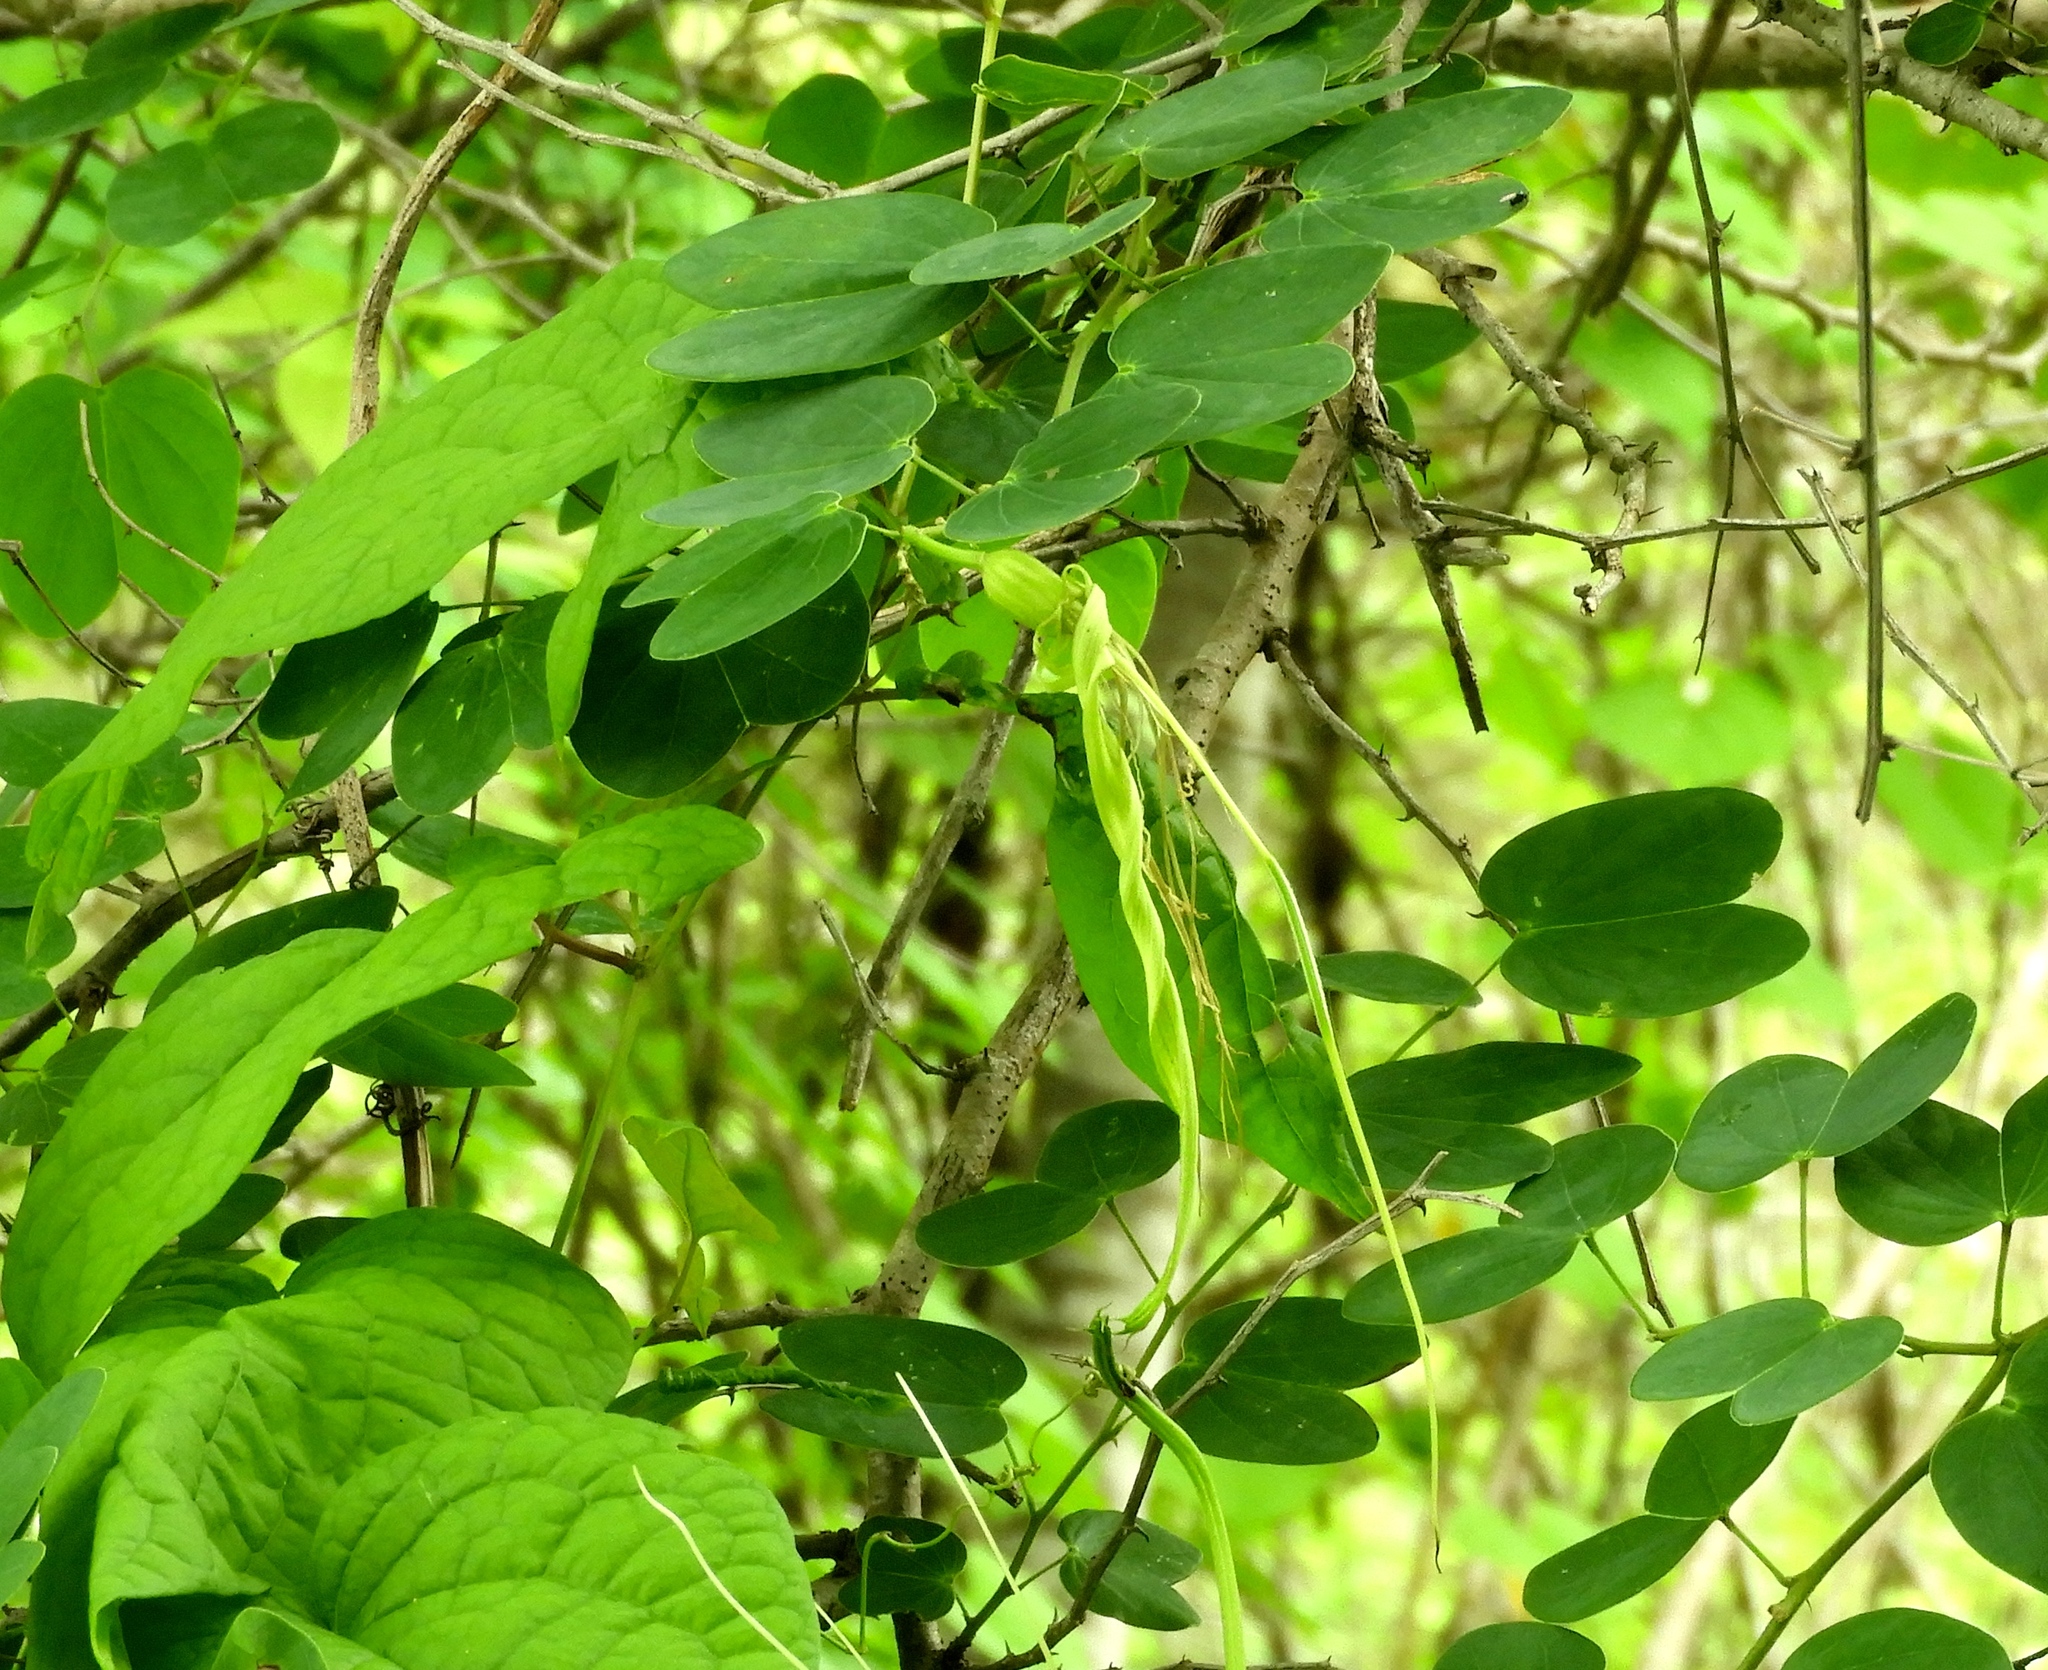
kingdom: Plantae
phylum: Tracheophyta
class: Magnoliopsida
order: Fabales
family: Fabaceae
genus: Bauhinia
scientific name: Bauhinia pauletia
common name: Railway-fence bauhinia
